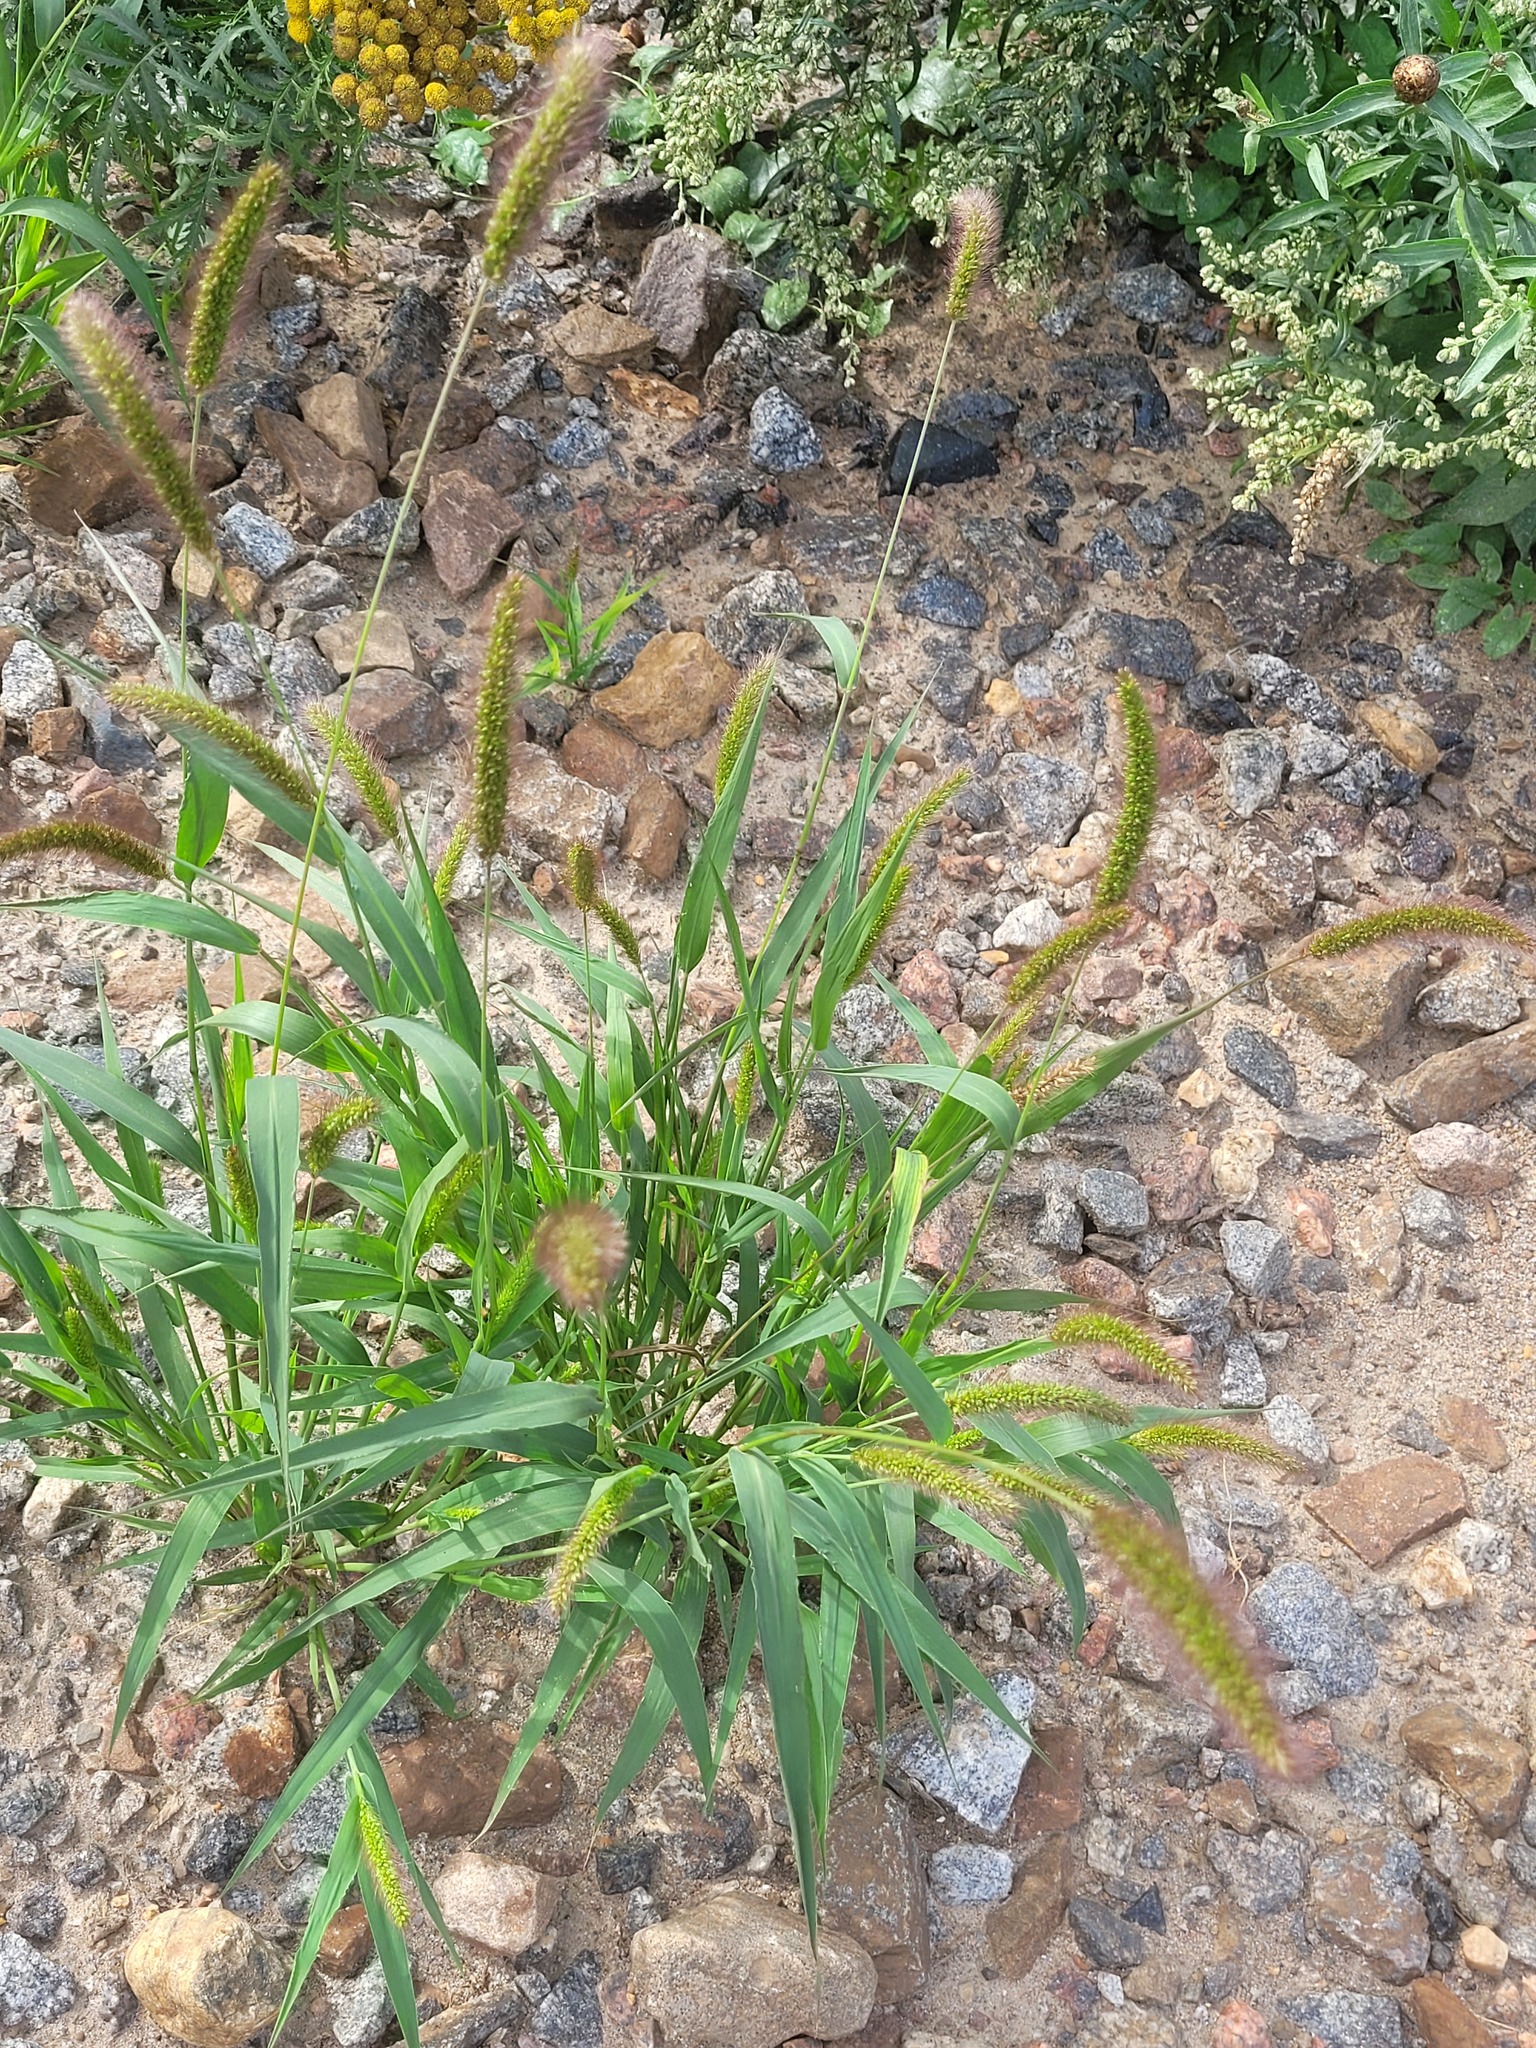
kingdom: Plantae
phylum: Tracheophyta
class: Liliopsida
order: Poales
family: Poaceae
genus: Setaria
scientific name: Setaria viridis
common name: Green bristlegrass
